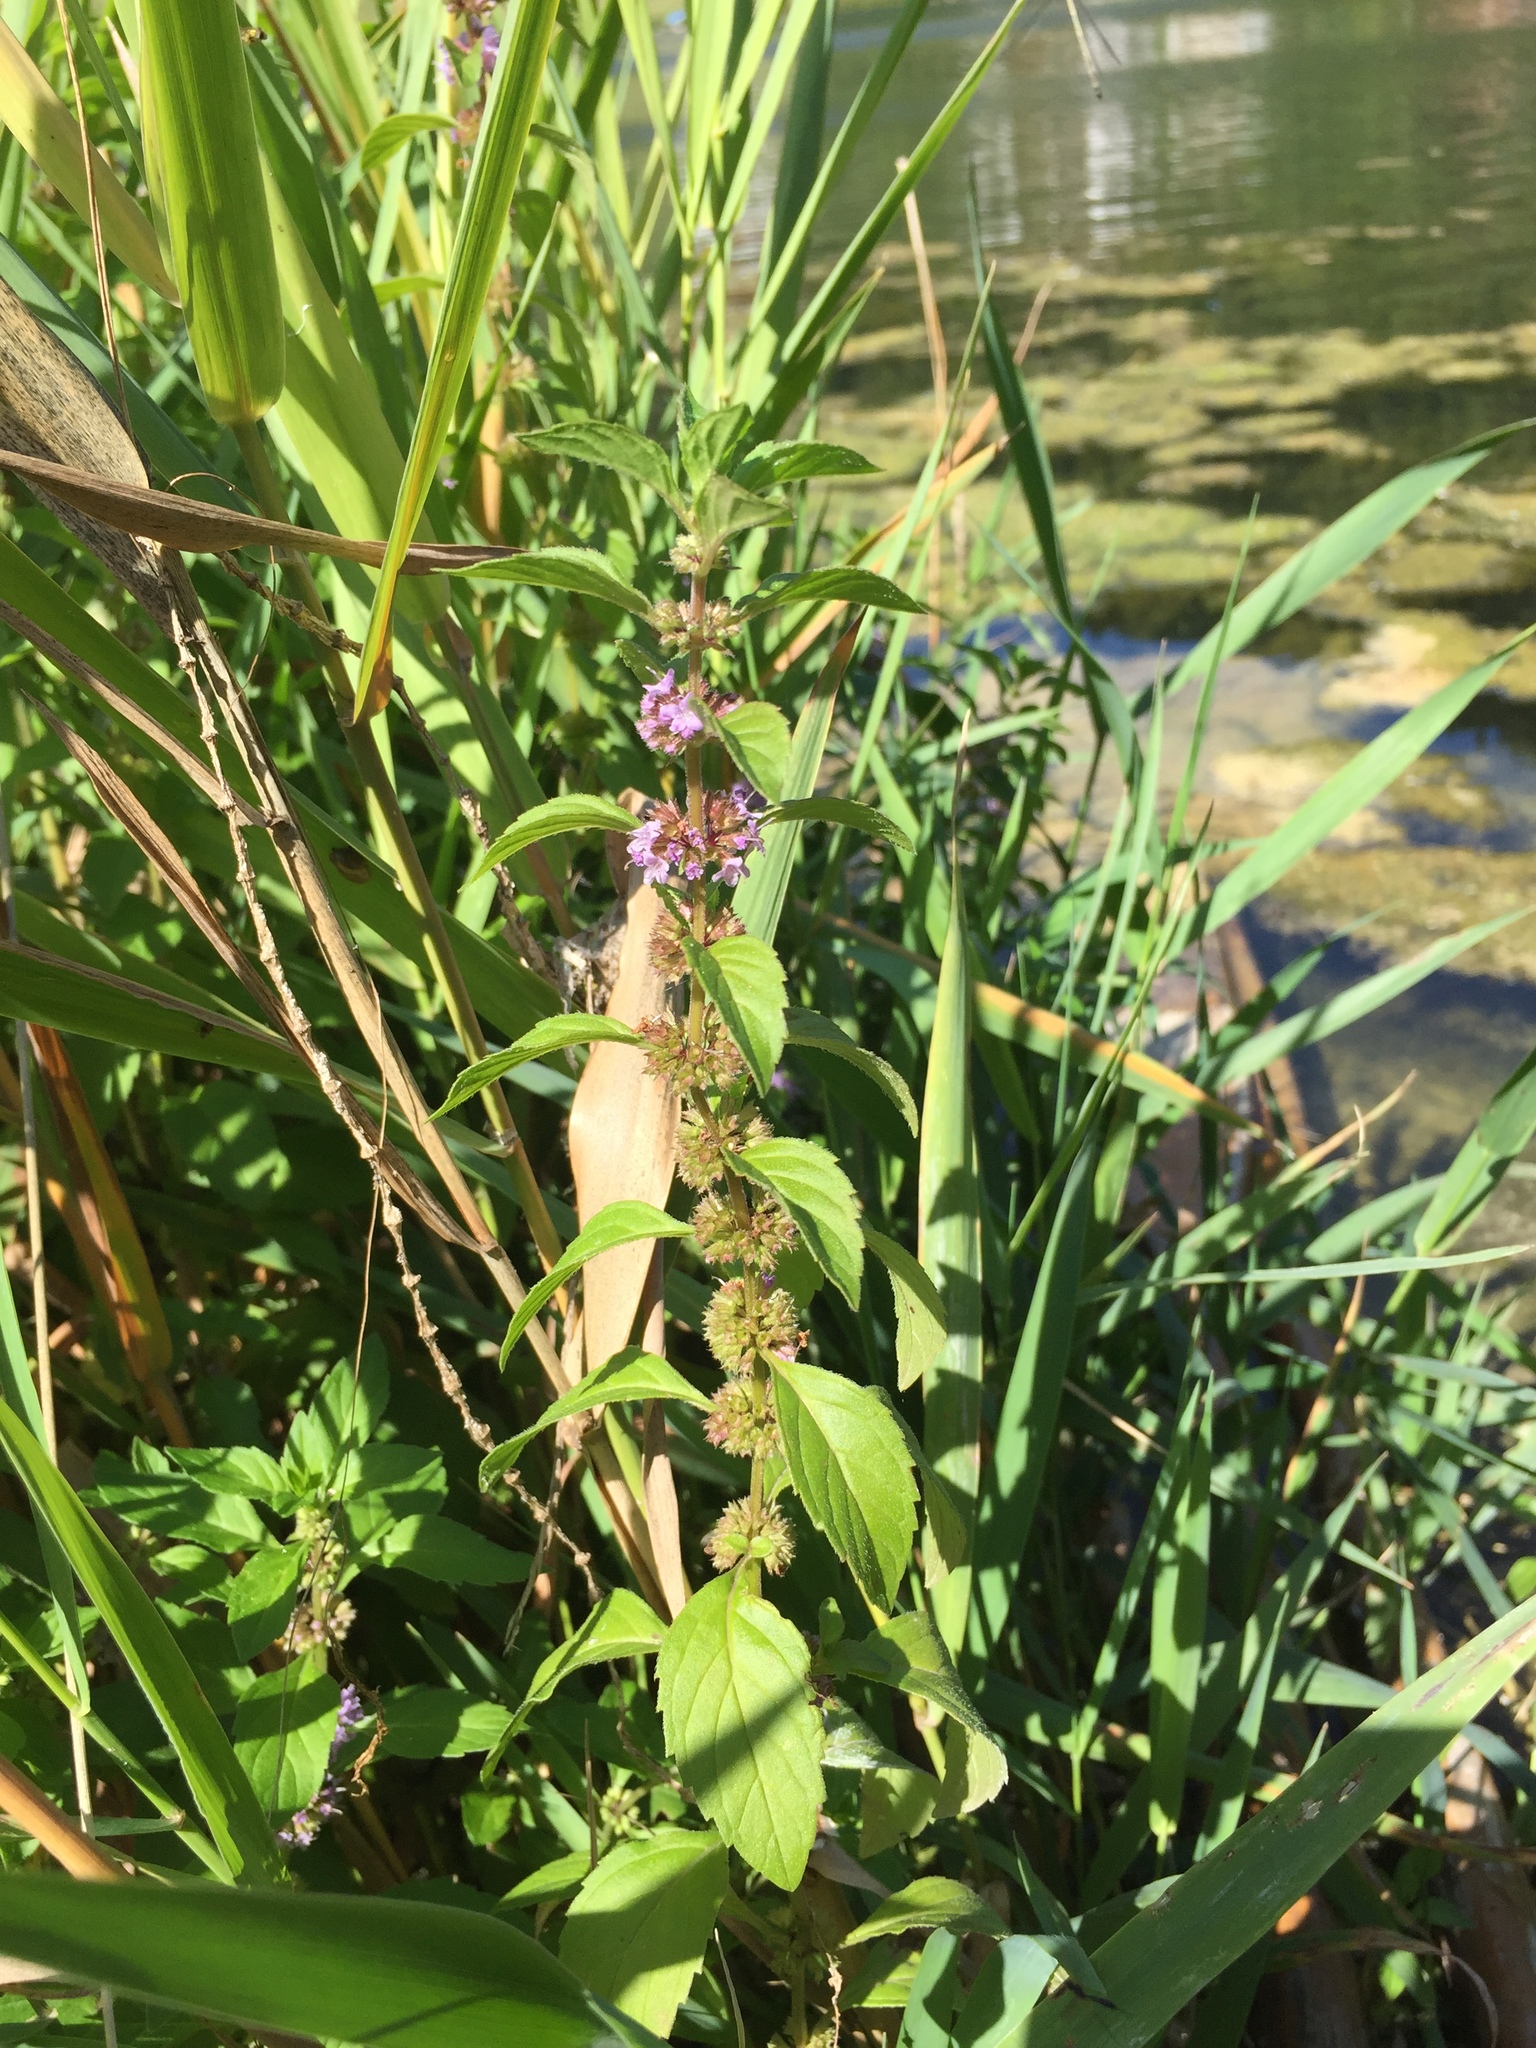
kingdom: Plantae
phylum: Tracheophyta
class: Magnoliopsida
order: Lamiales
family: Lamiaceae
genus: Mentha
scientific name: Mentha arvensis
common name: Corn mint
